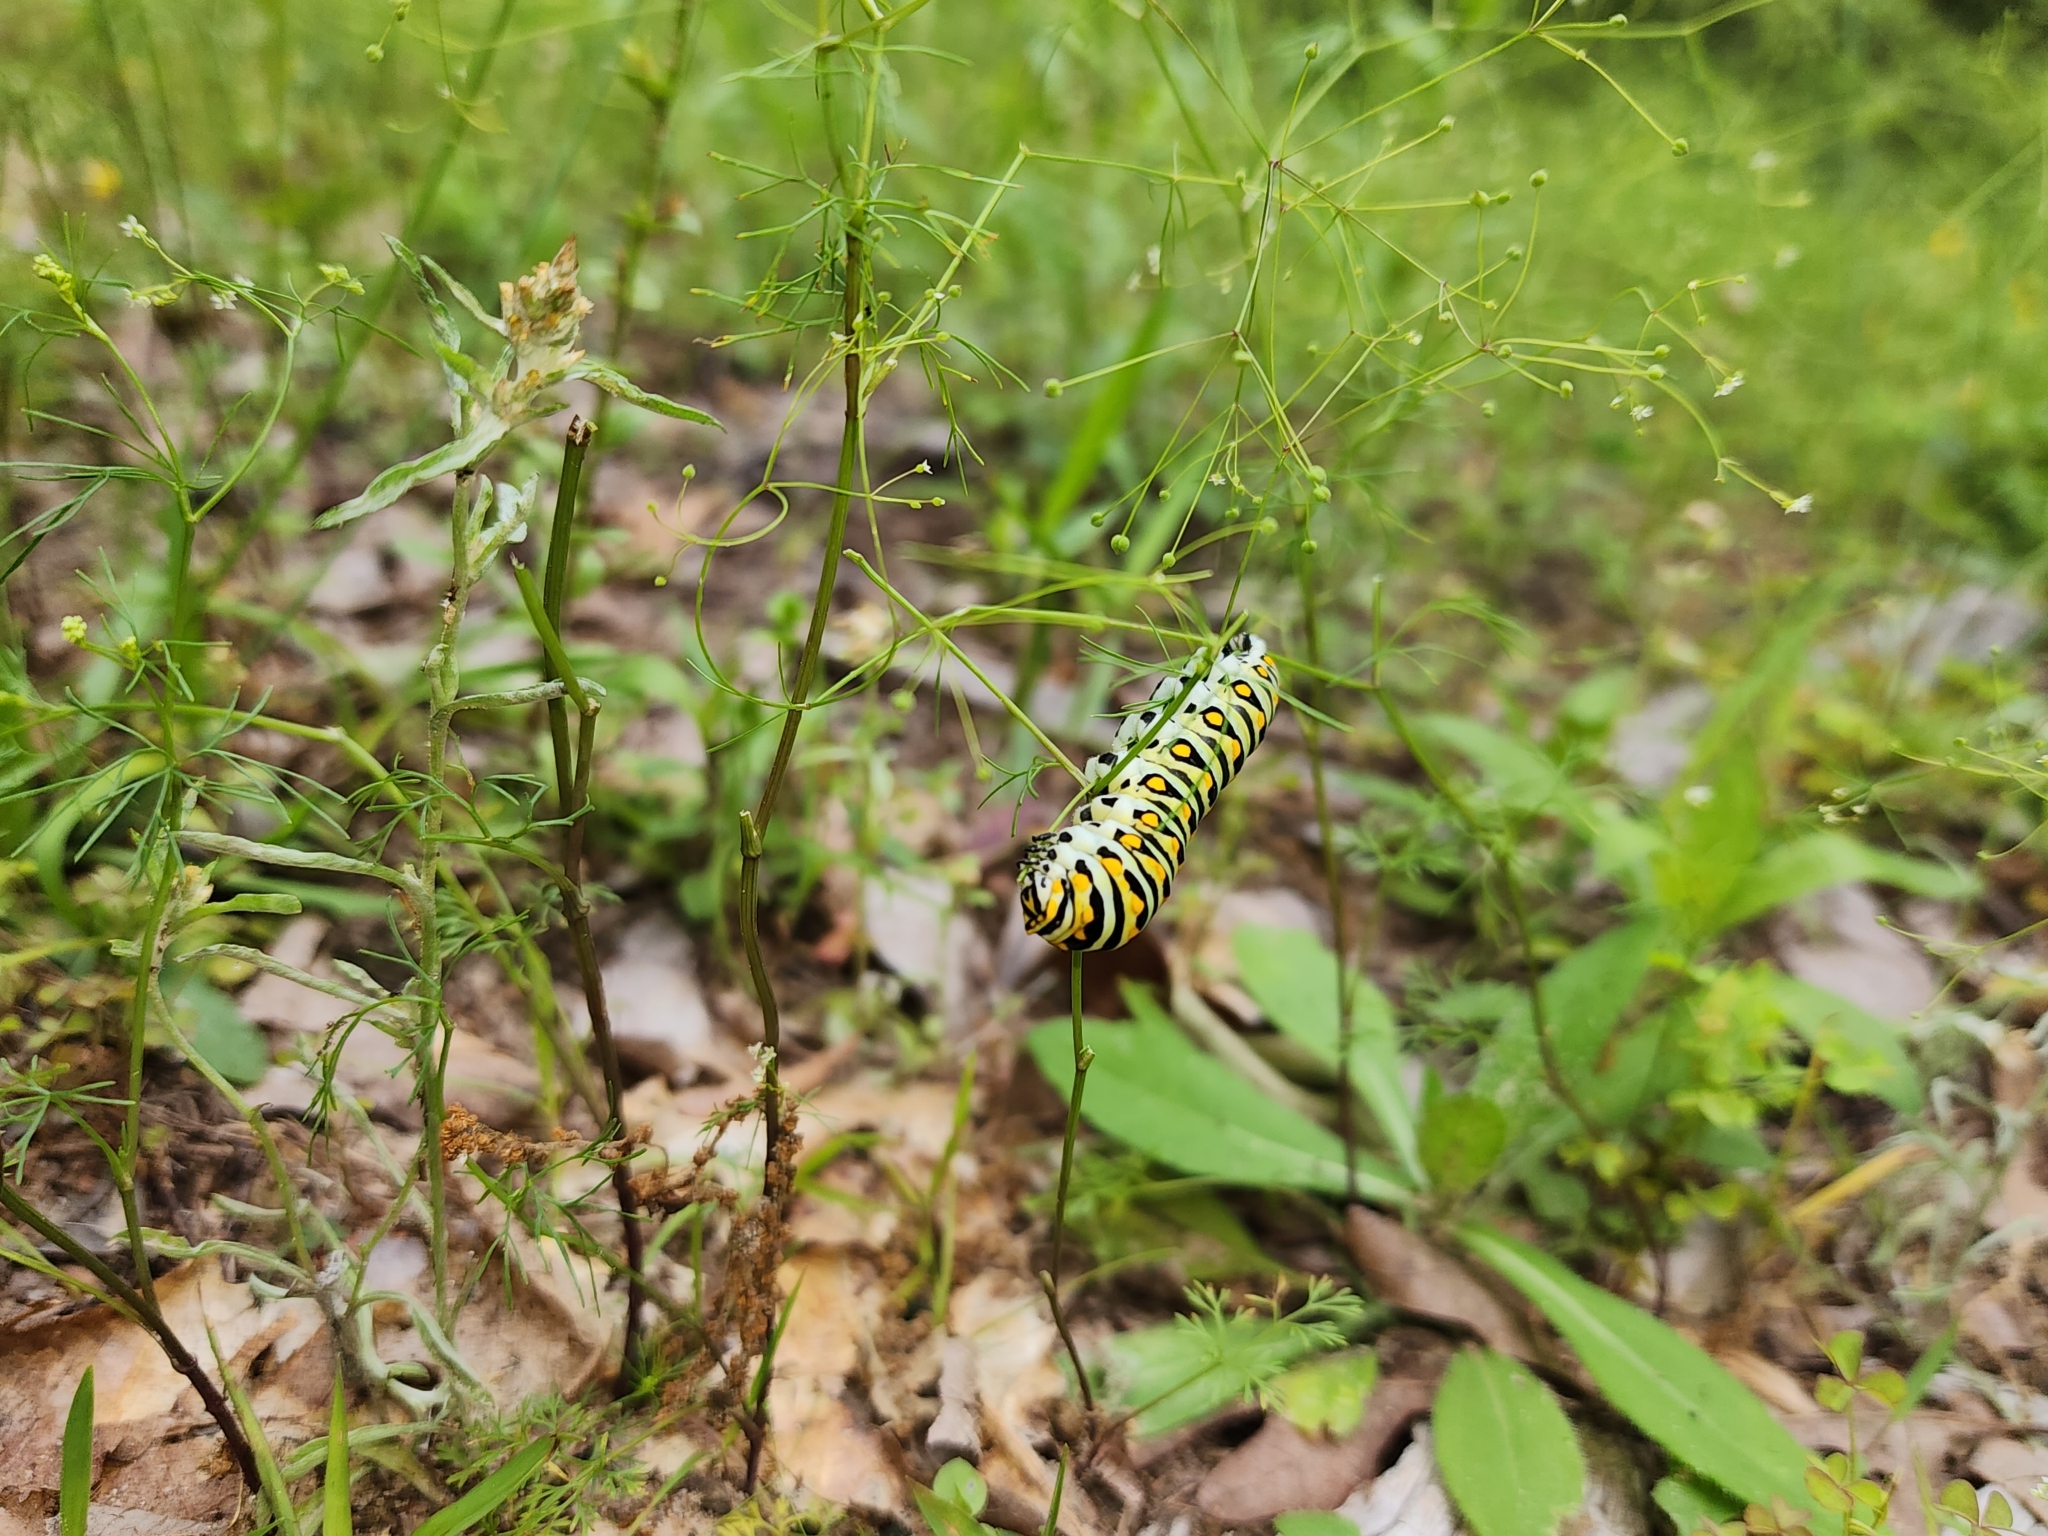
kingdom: Animalia
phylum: Arthropoda
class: Insecta
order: Lepidoptera
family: Papilionidae
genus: Papilio
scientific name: Papilio polyxenes
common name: Black swallowtail
